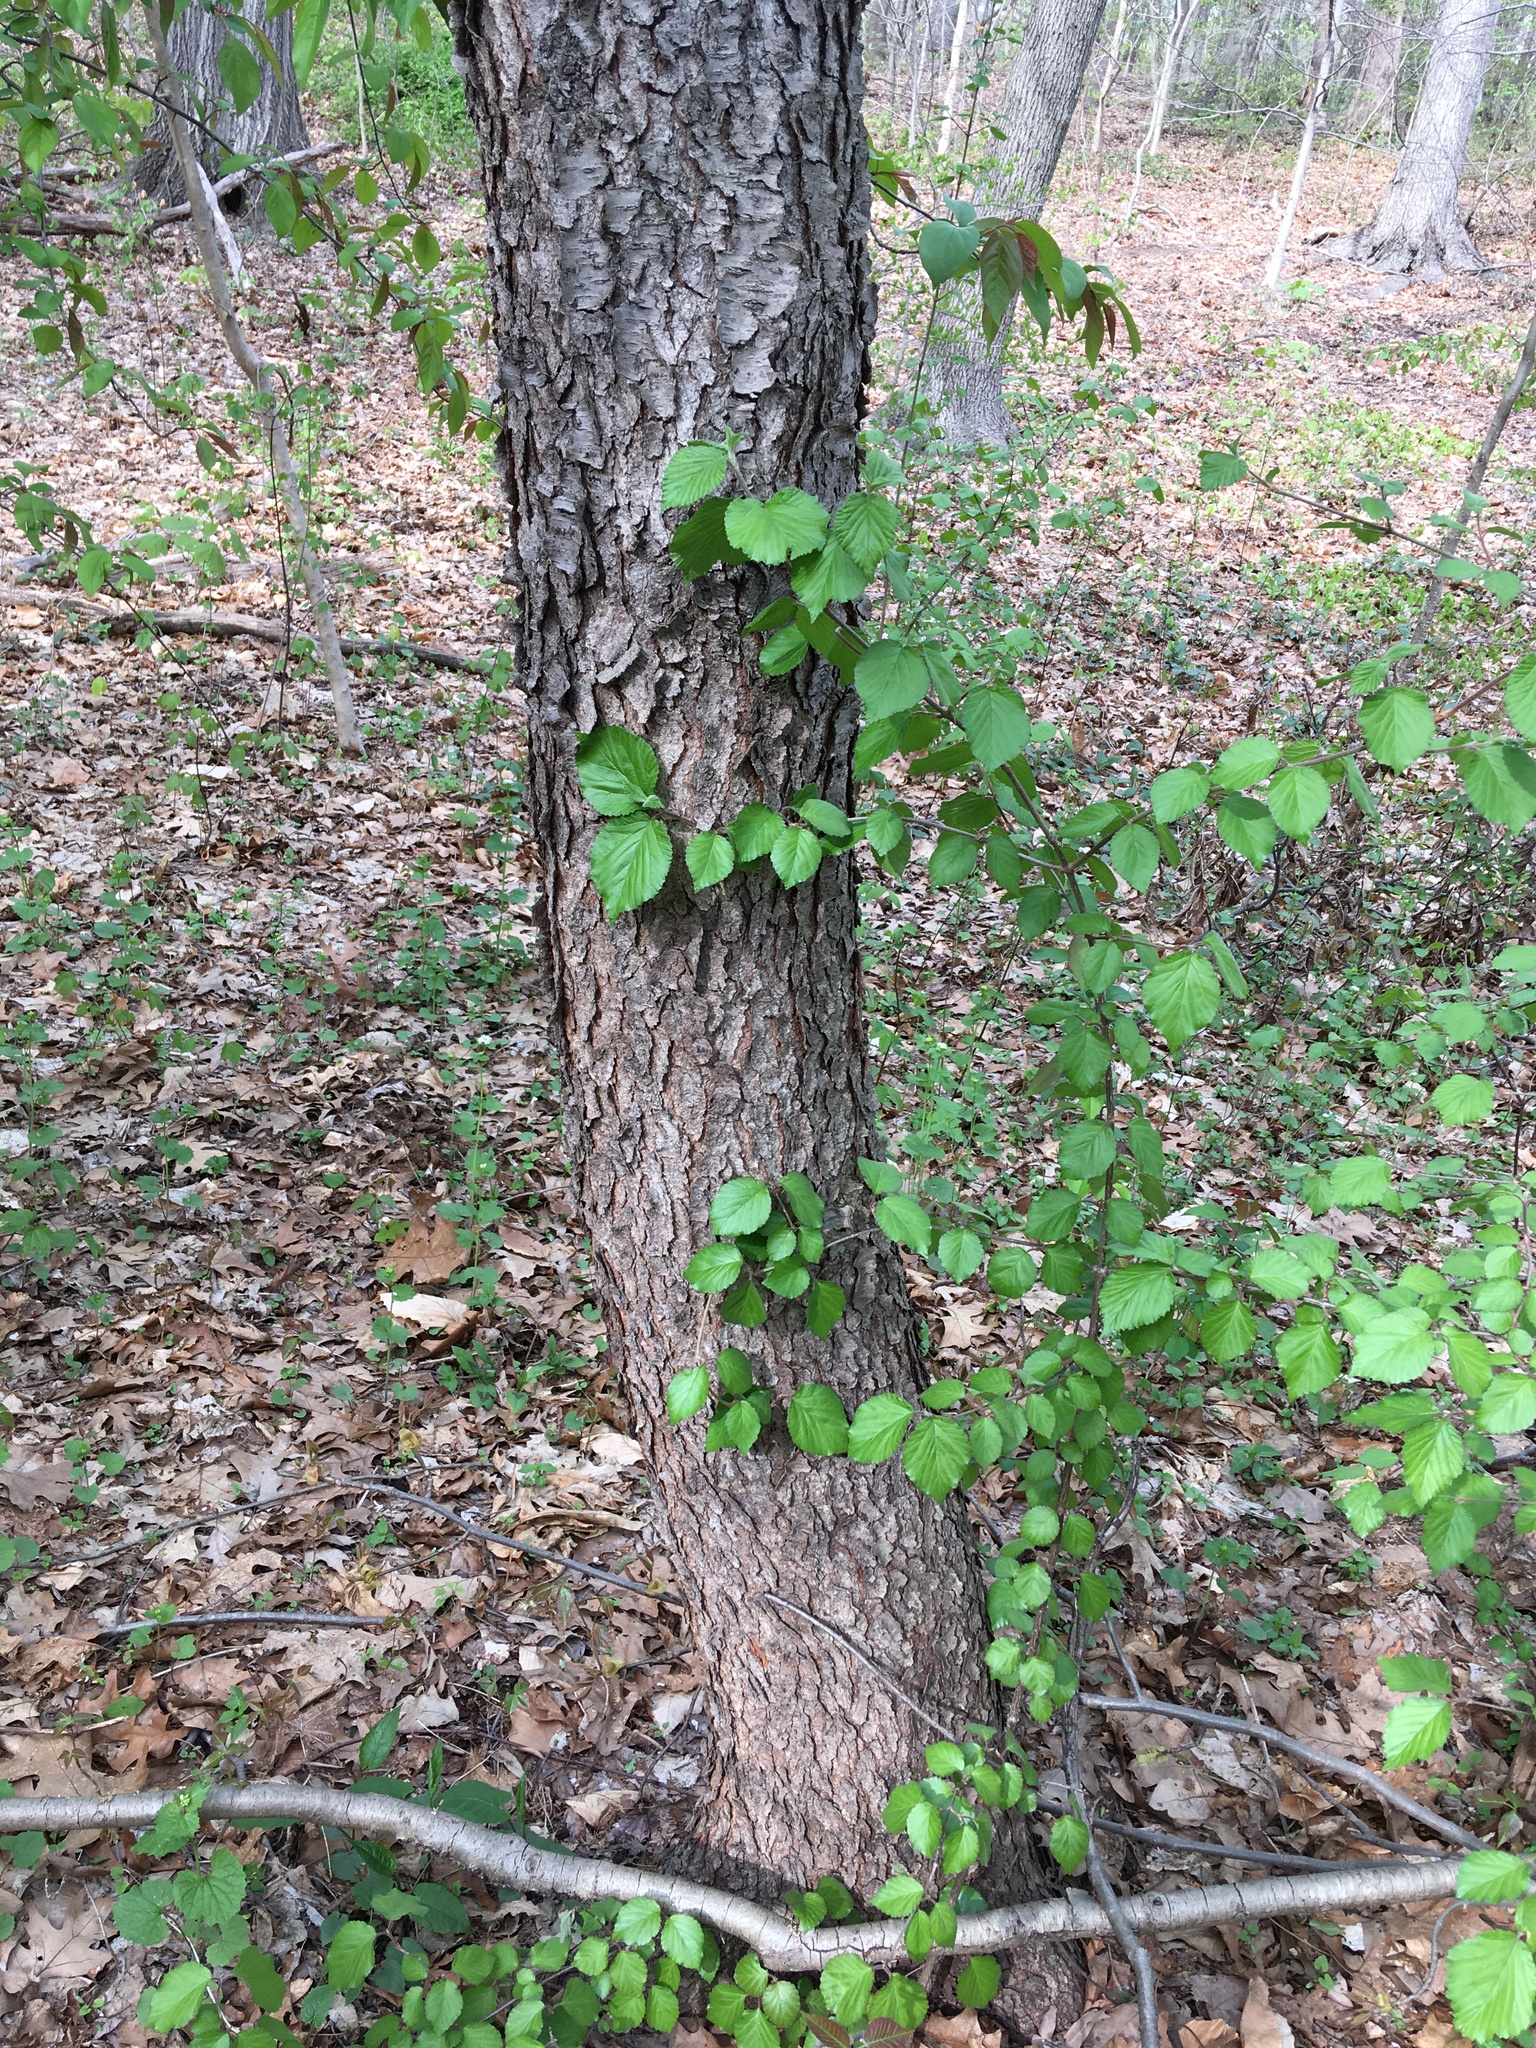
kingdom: Plantae
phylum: Tracheophyta
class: Magnoliopsida
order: Rosales
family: Rosaceae
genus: Prunus
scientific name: Prunus serotina
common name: Black cherry
